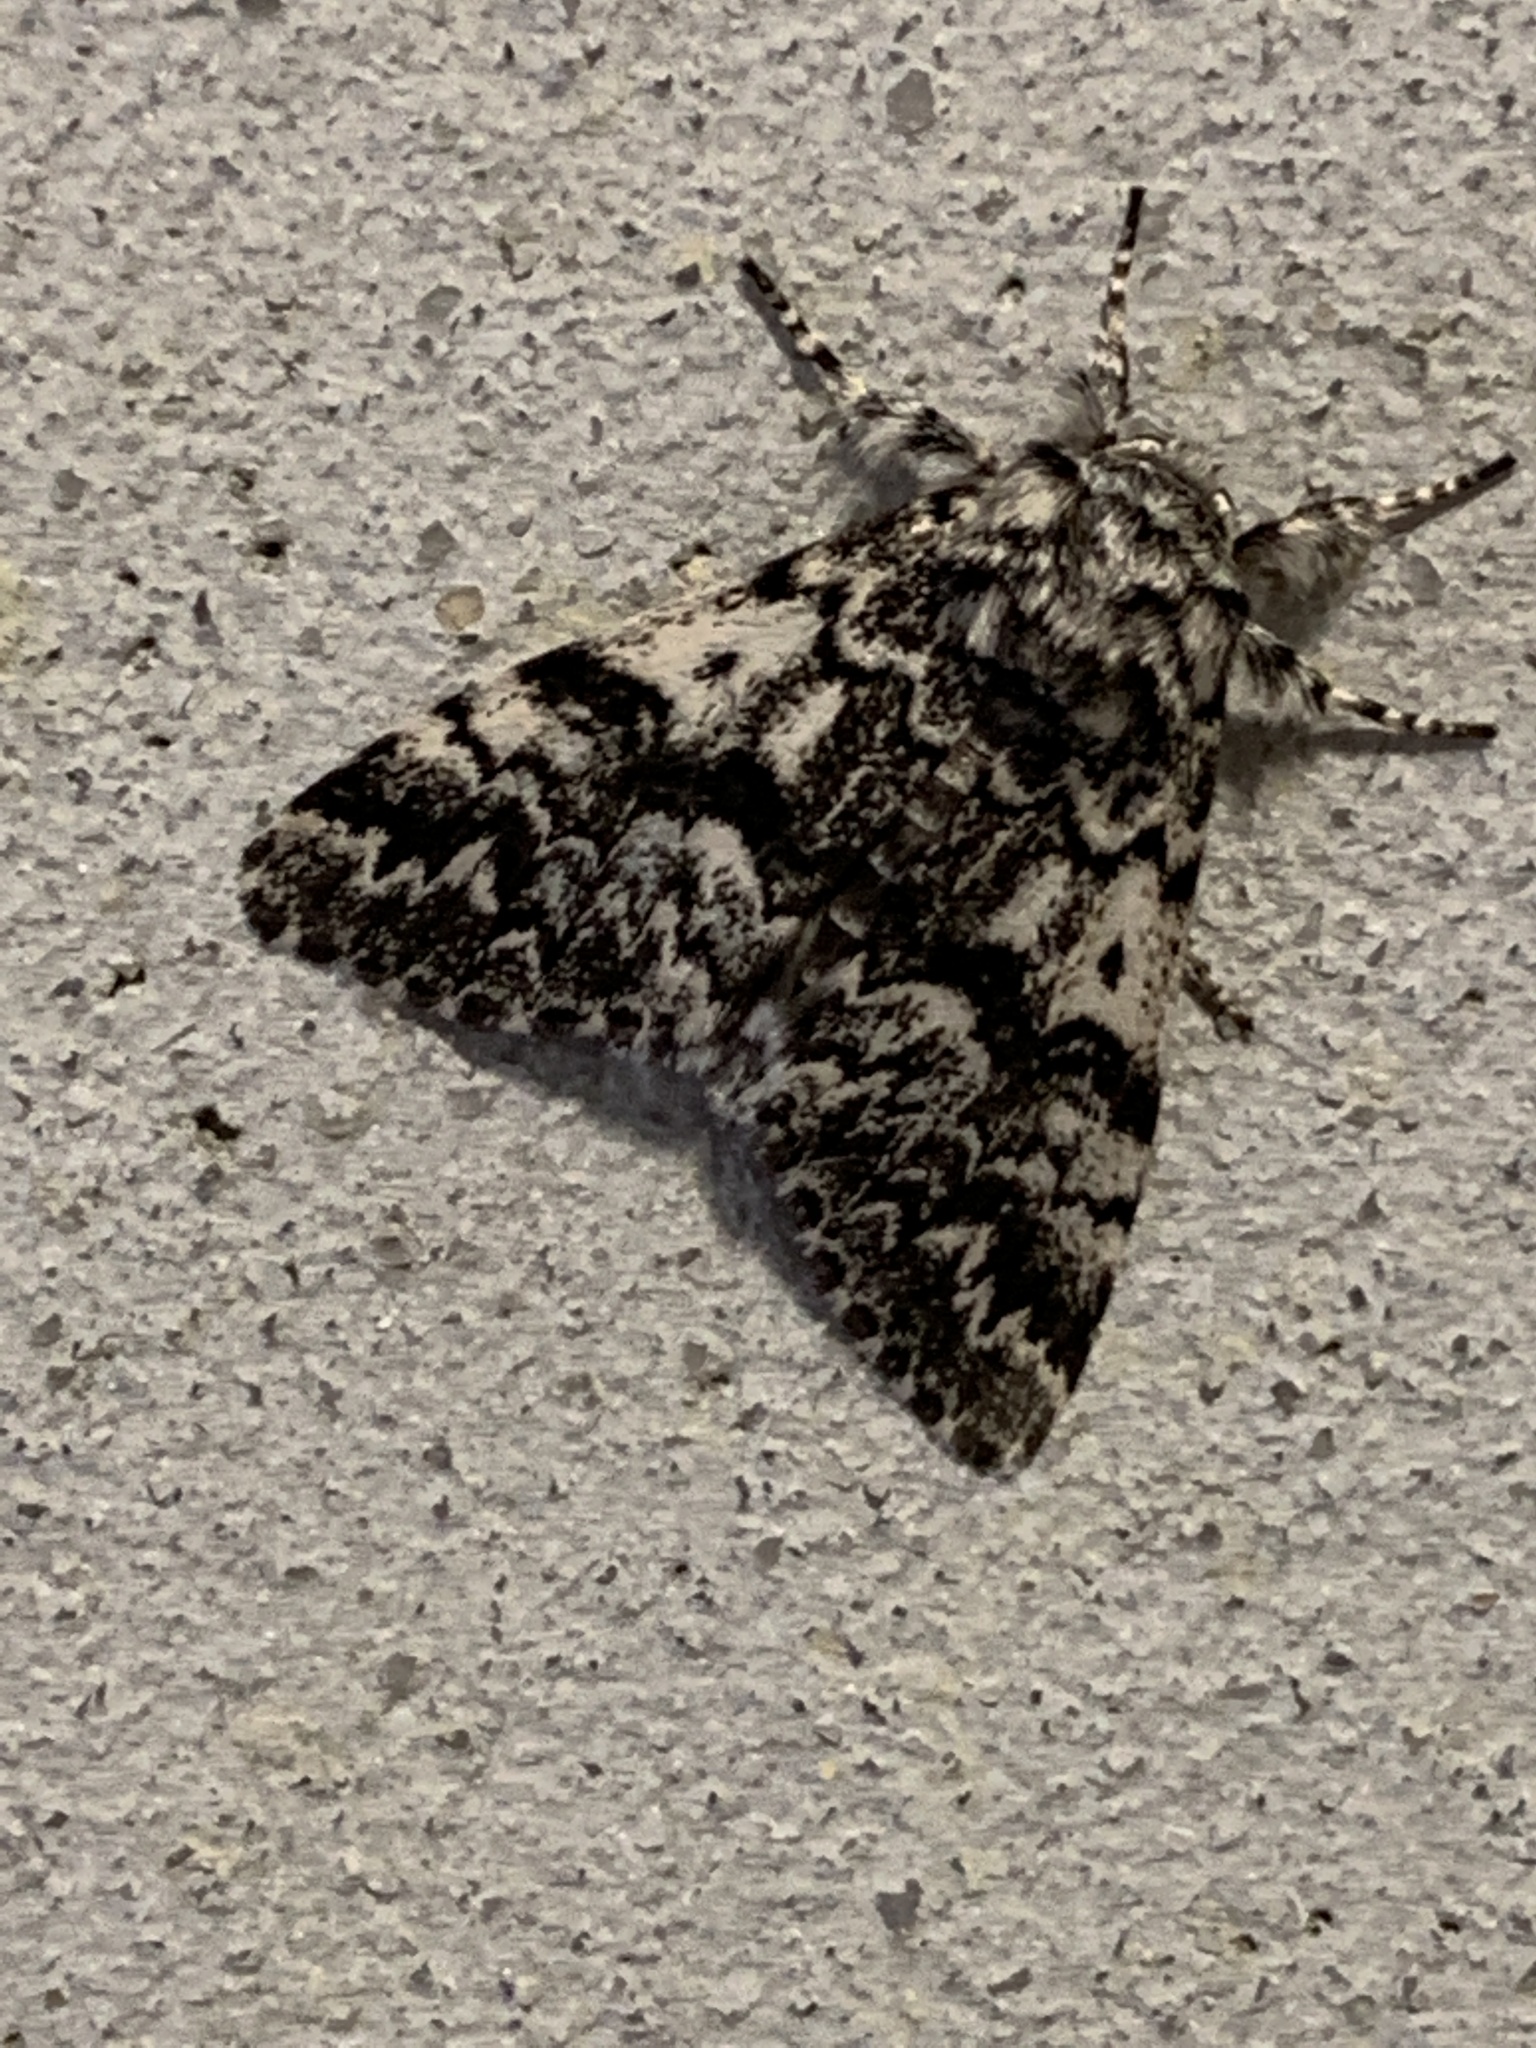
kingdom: Animalia
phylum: Arthropoda
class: Insecta
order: Lepidoptera
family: Noctuidae
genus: Panthea
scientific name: Panthea acronyctoides
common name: Black zigzag moth
